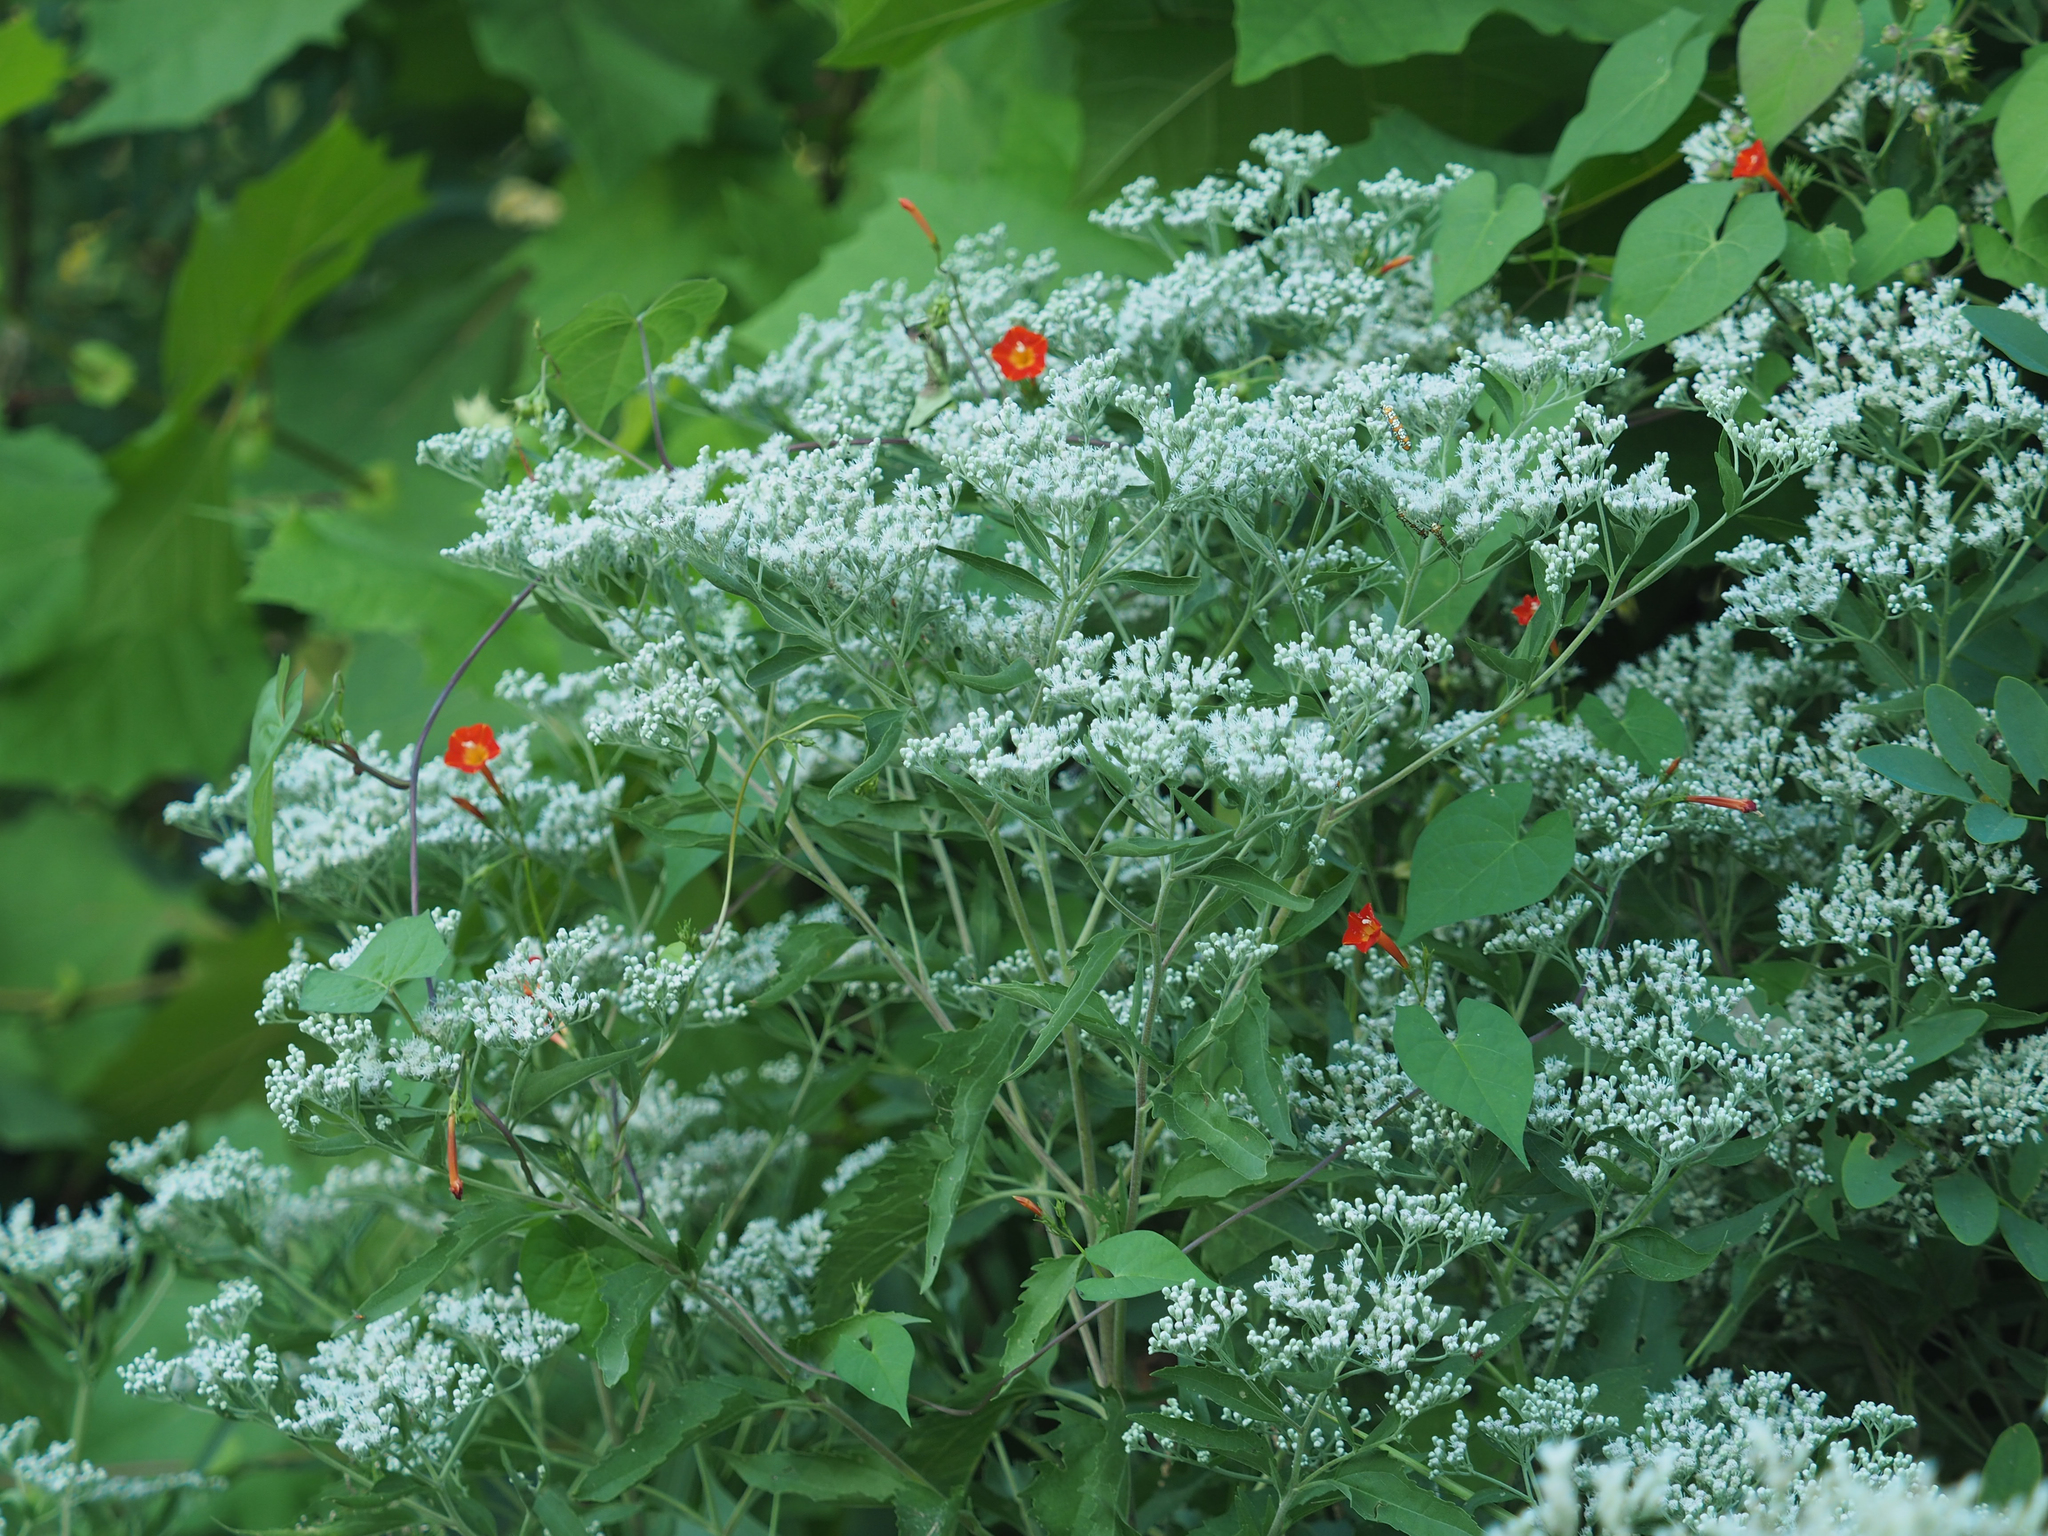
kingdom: Plantae
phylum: Tracheophyta
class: Magnoliopsida
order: Asterales
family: Asteraceae
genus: Eupatorium
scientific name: Eupatorium serotinum
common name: Late boneset
